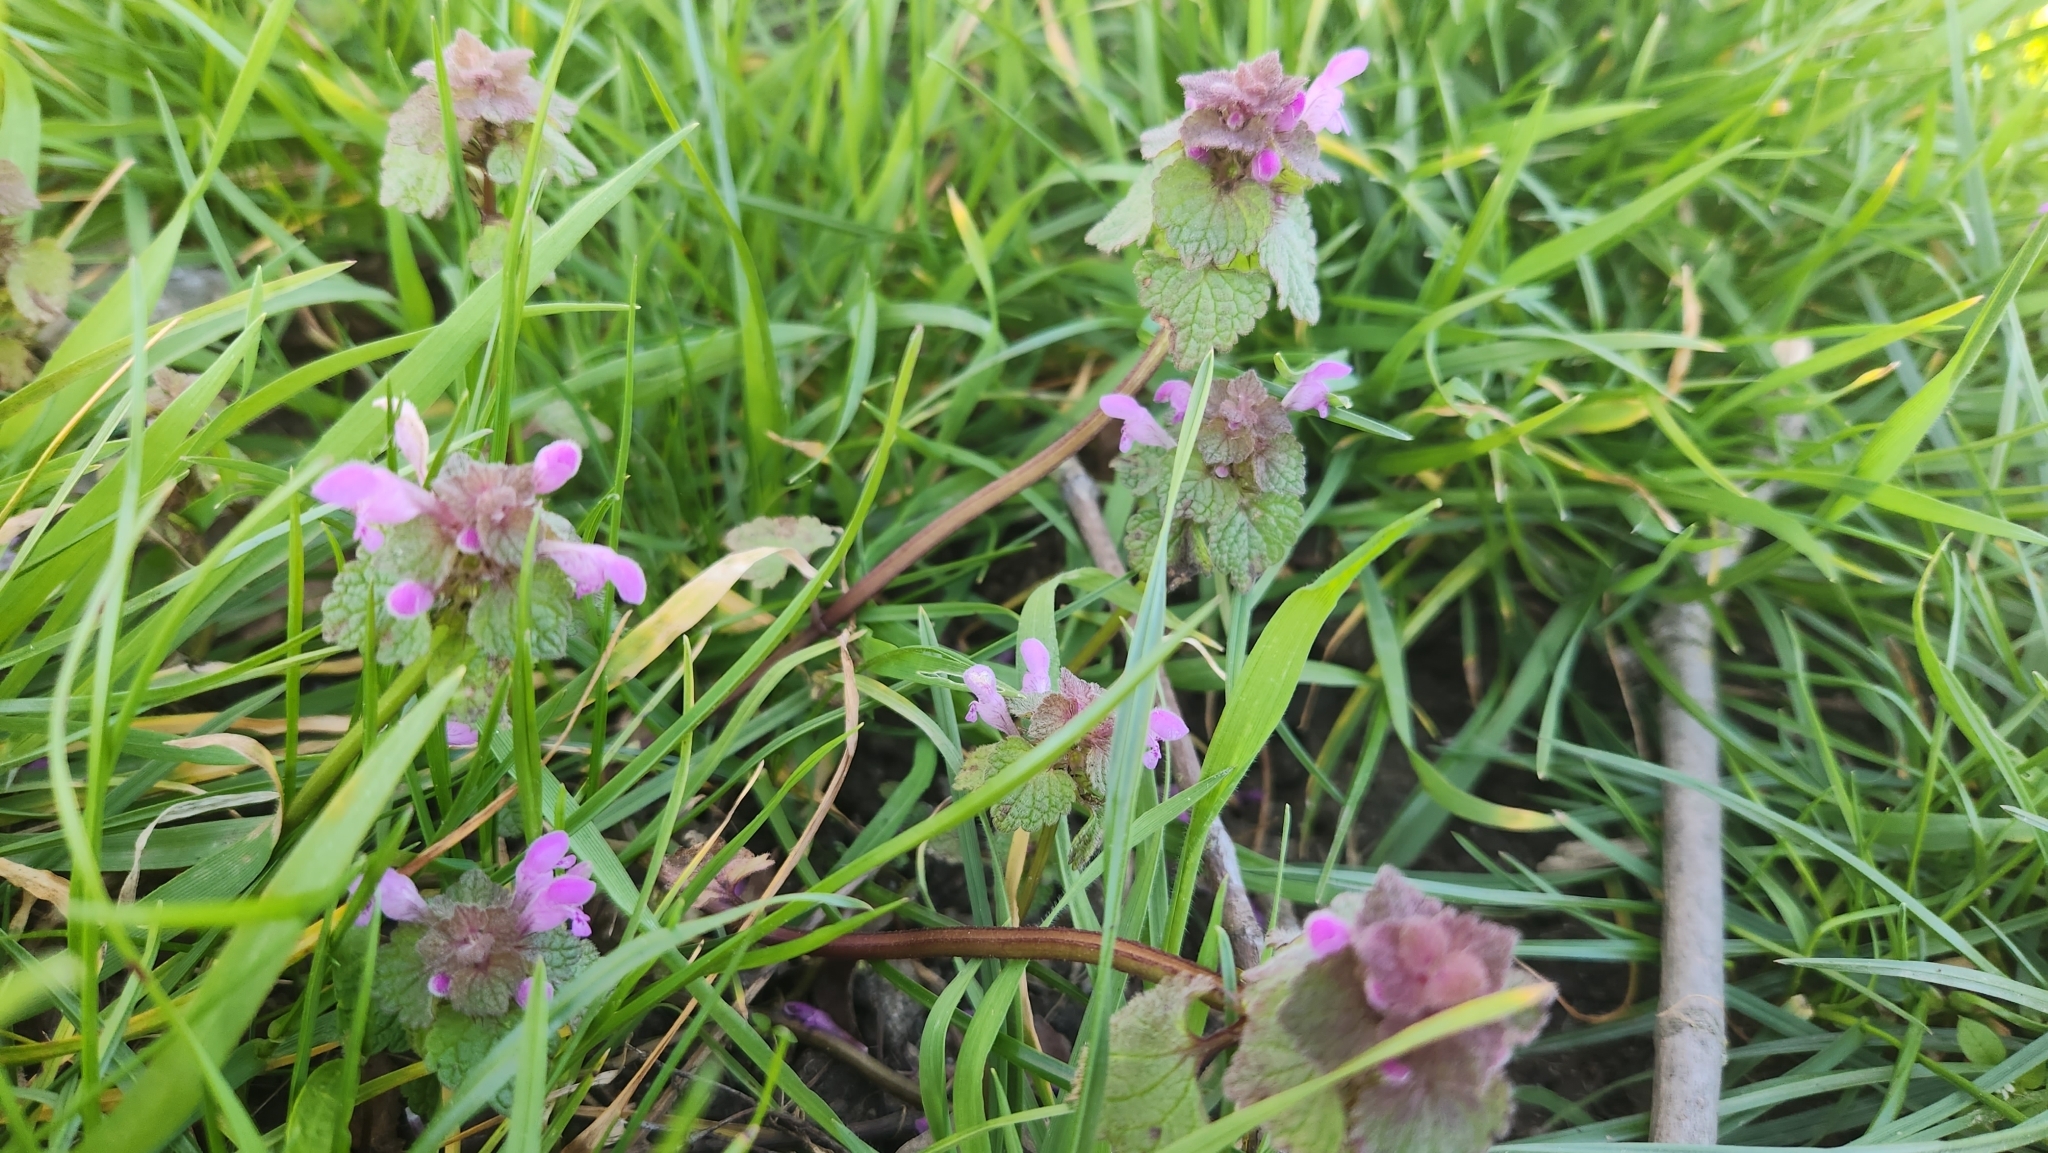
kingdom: Plantae
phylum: Tracheophyta
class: Magnoliopsida
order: Lamiales
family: Lamiaceae
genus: Lamium
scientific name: Lamium purpureum
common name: Red dead-nettle
